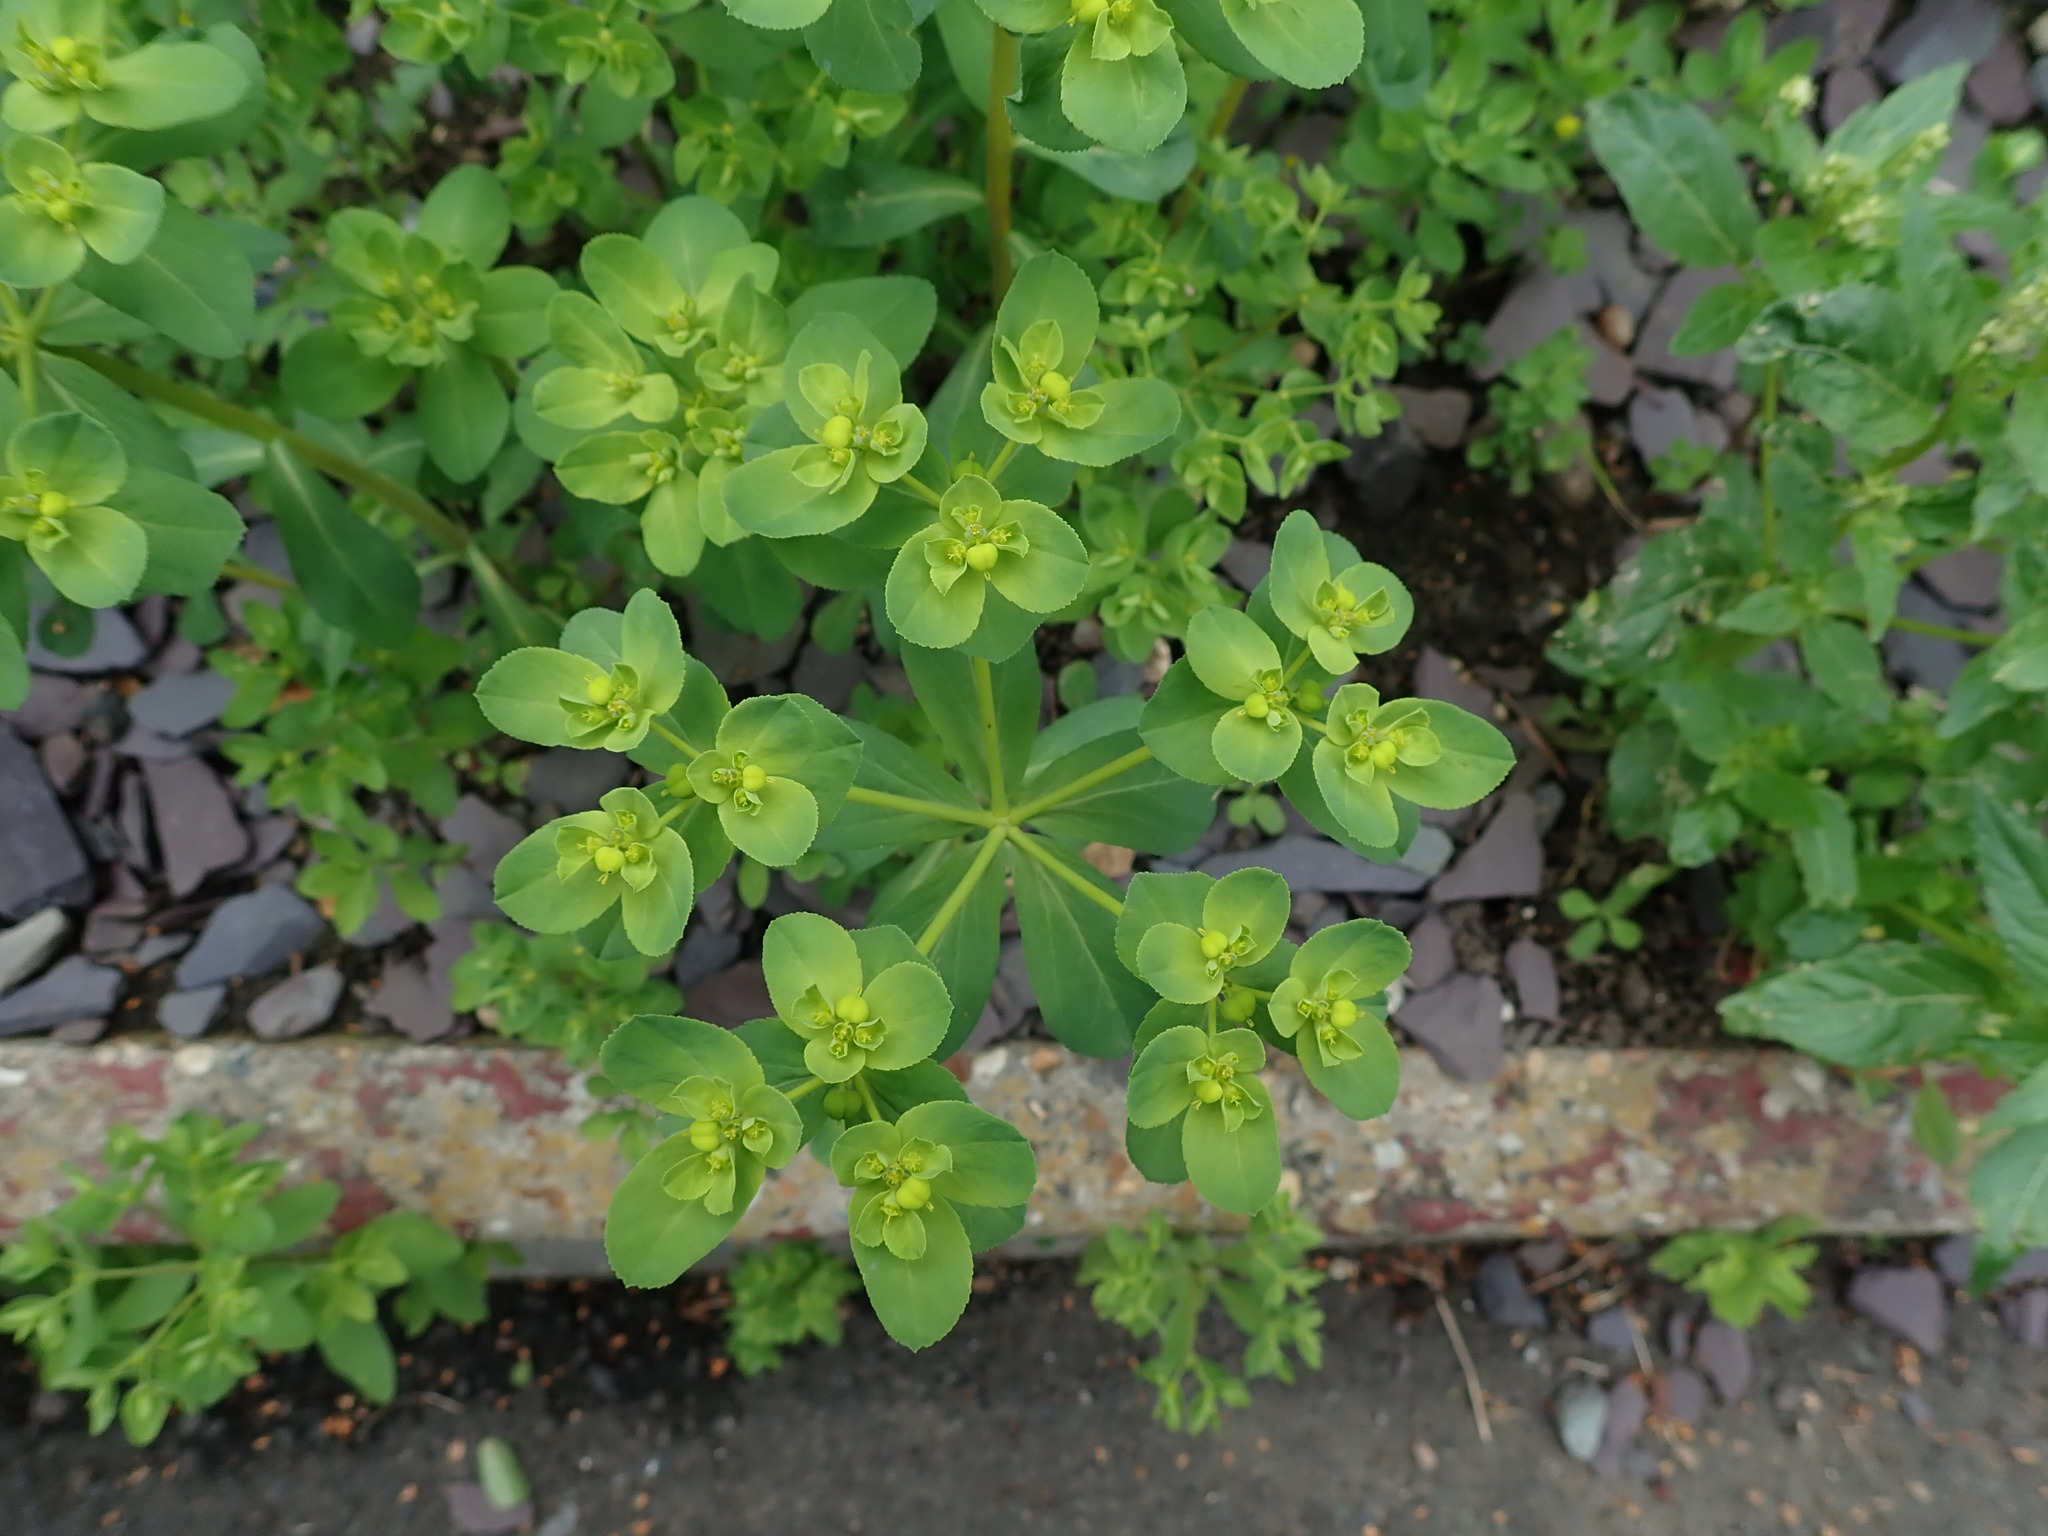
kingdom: Plantae
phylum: Tracheophyta
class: Magnoliopsida
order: Malpighiales
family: Euphorbiaceae
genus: Euphorbia
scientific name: Euphorbia helioscopia
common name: Sun spurge
